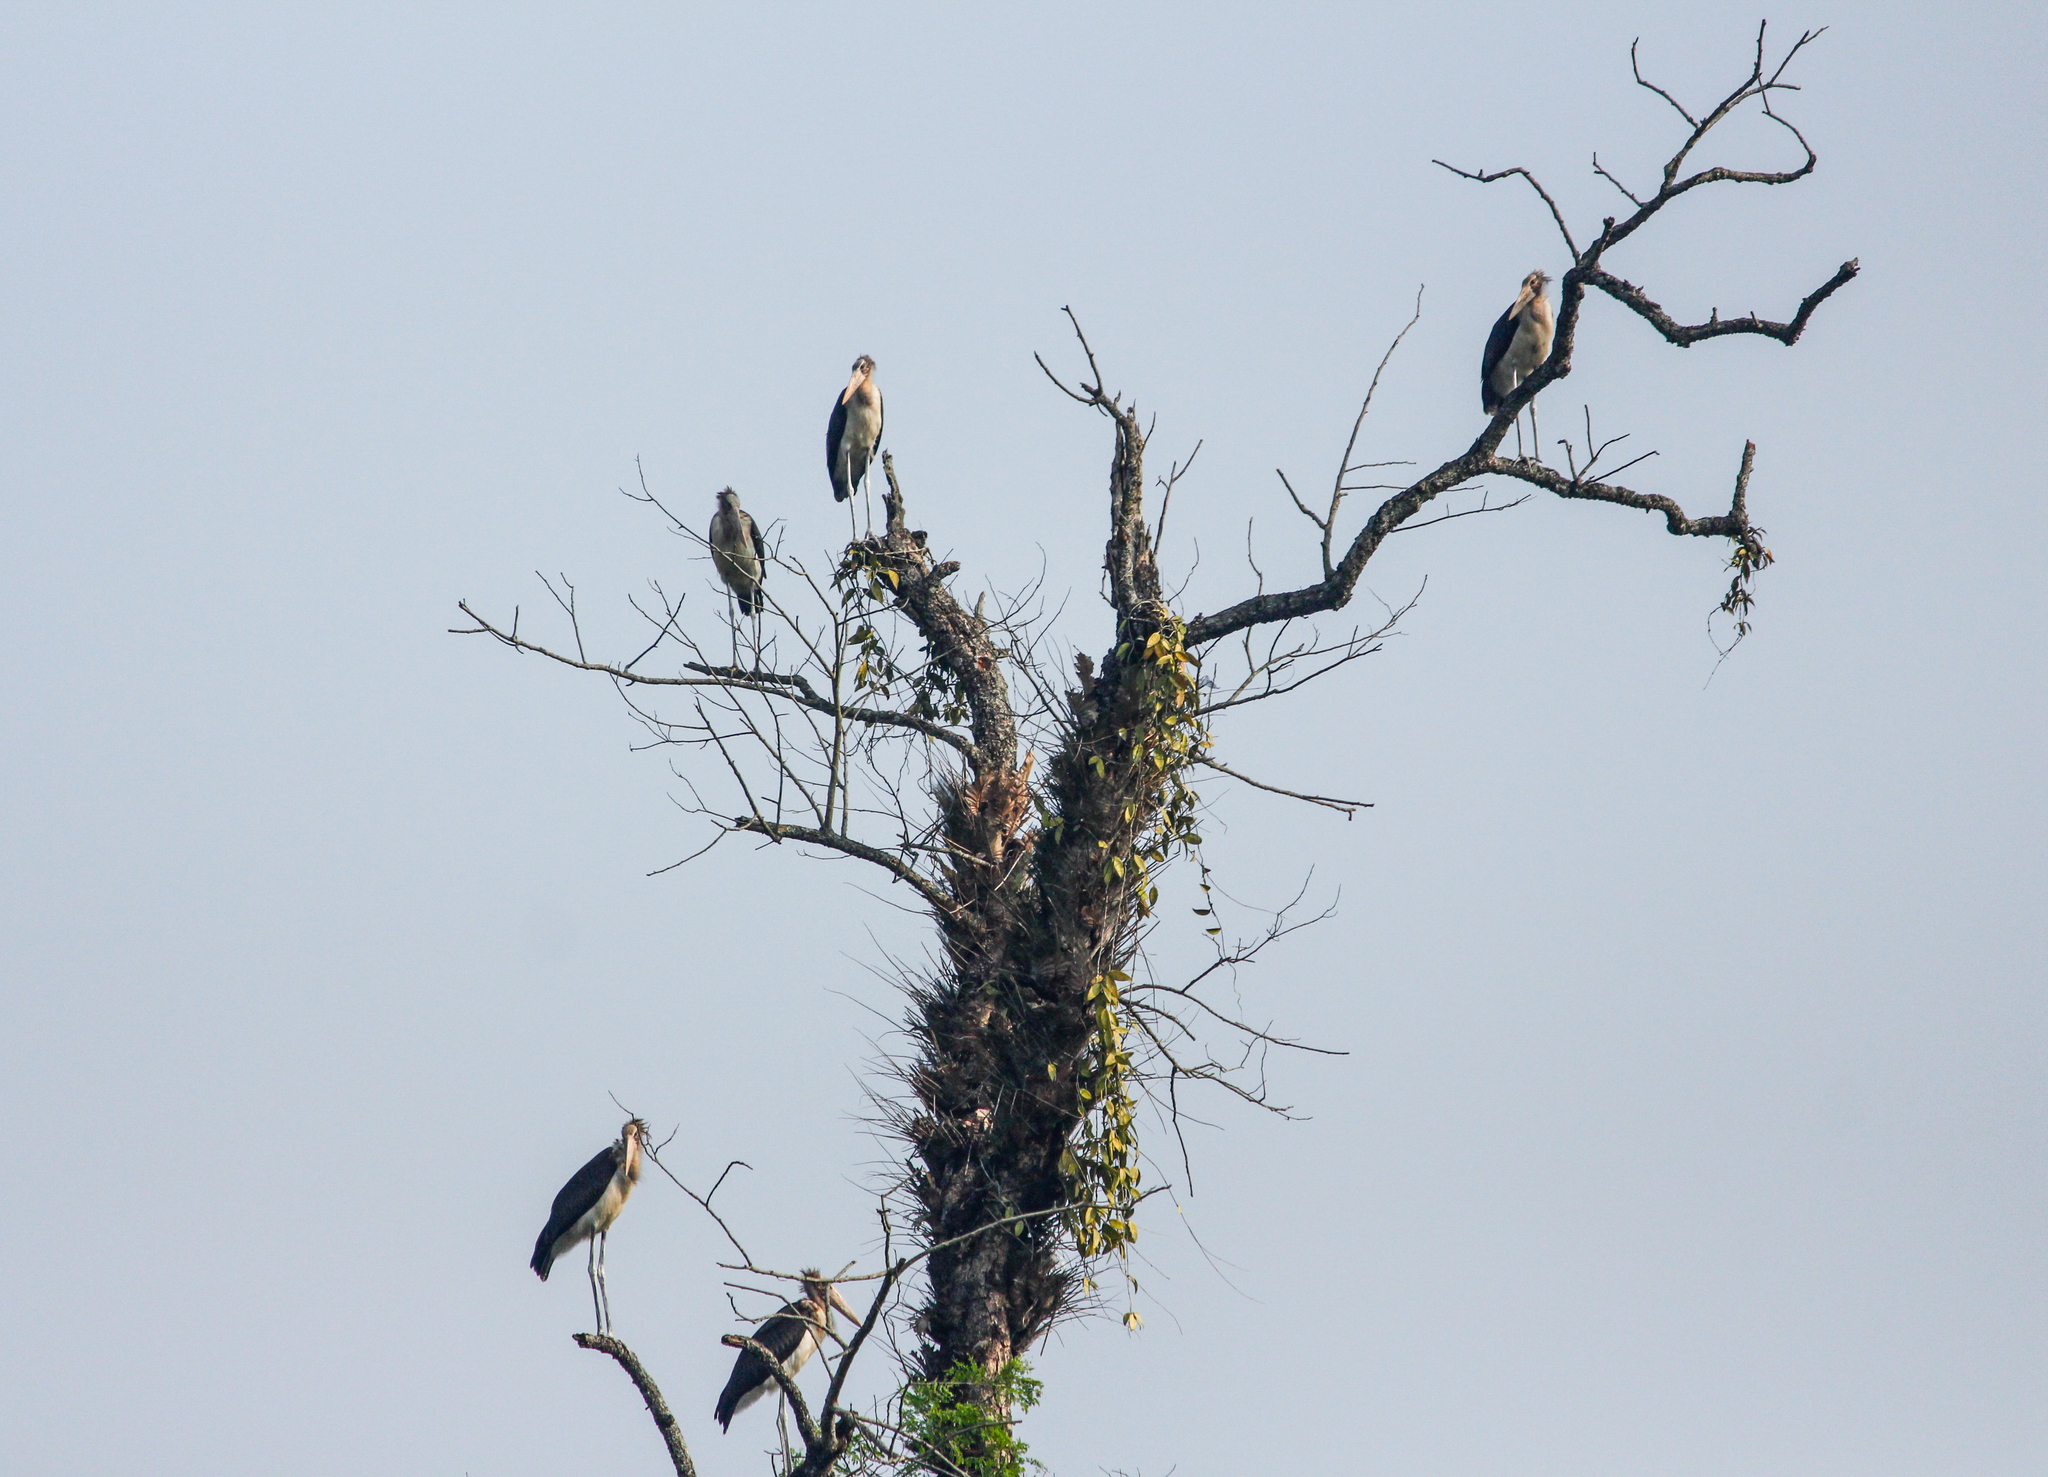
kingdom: Animalia
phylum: Chordata
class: Aves
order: Ciconiiformes
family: Ciconiidae
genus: Leptoptilos
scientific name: Leptoptilos javanicus
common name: Lesser adjutant
